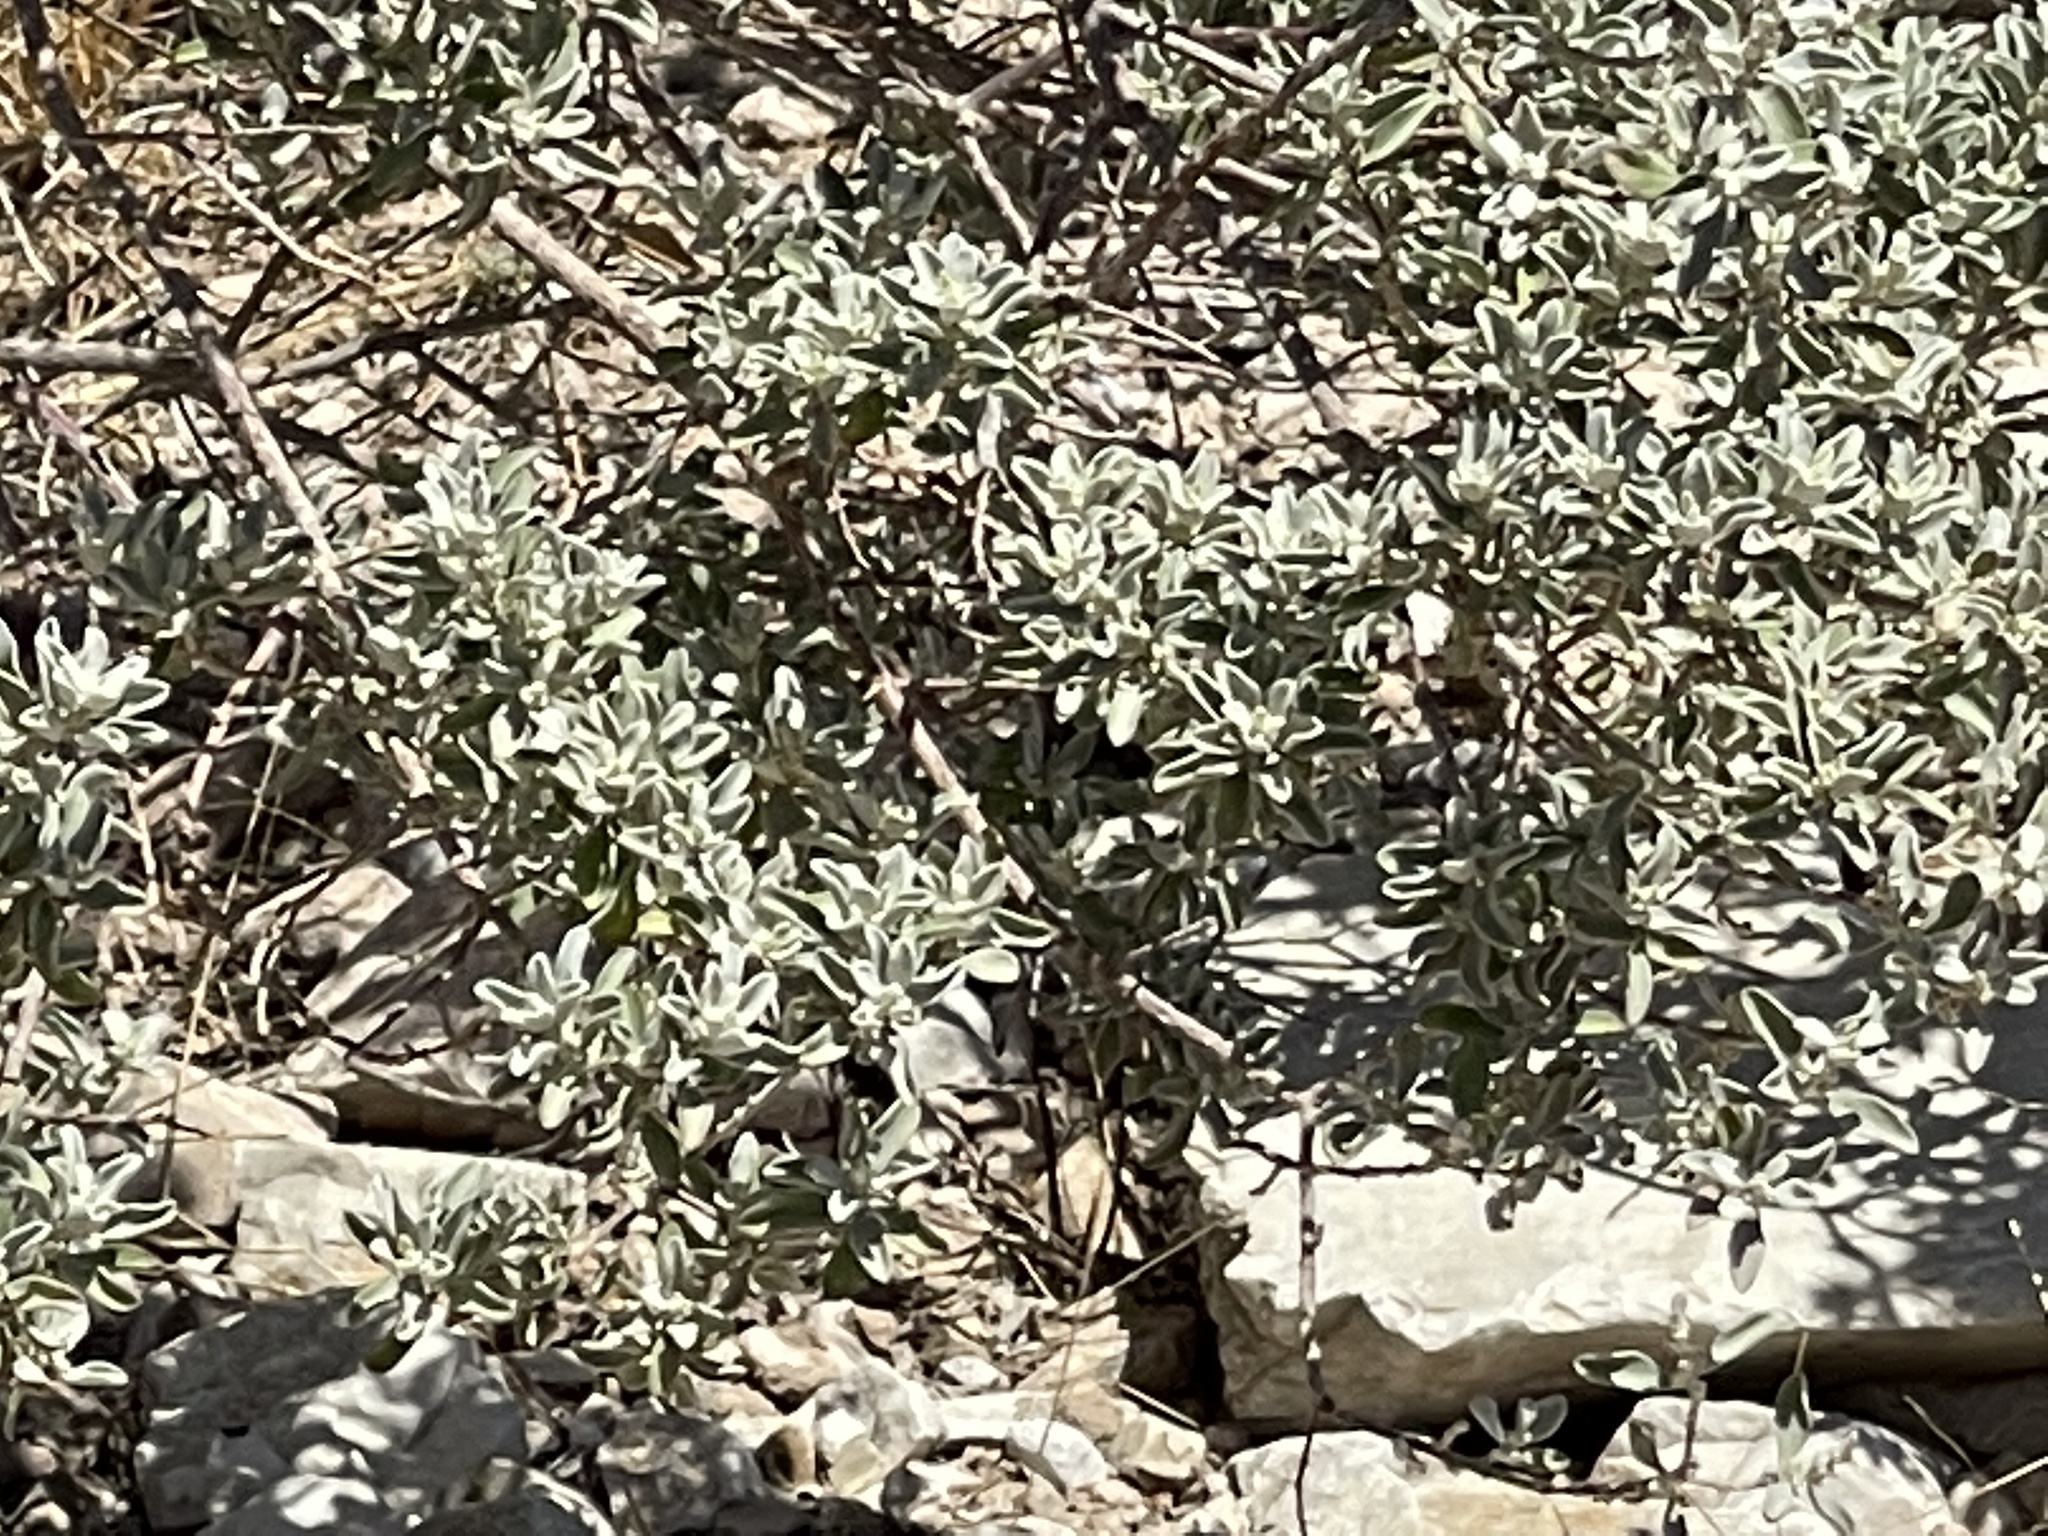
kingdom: Plantae
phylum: Tracheophyta
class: Magnoliopsida
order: Caryophyllales
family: Amaranthaceae
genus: Atriplex
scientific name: Atriplex canescens
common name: Four-wing saltbush
